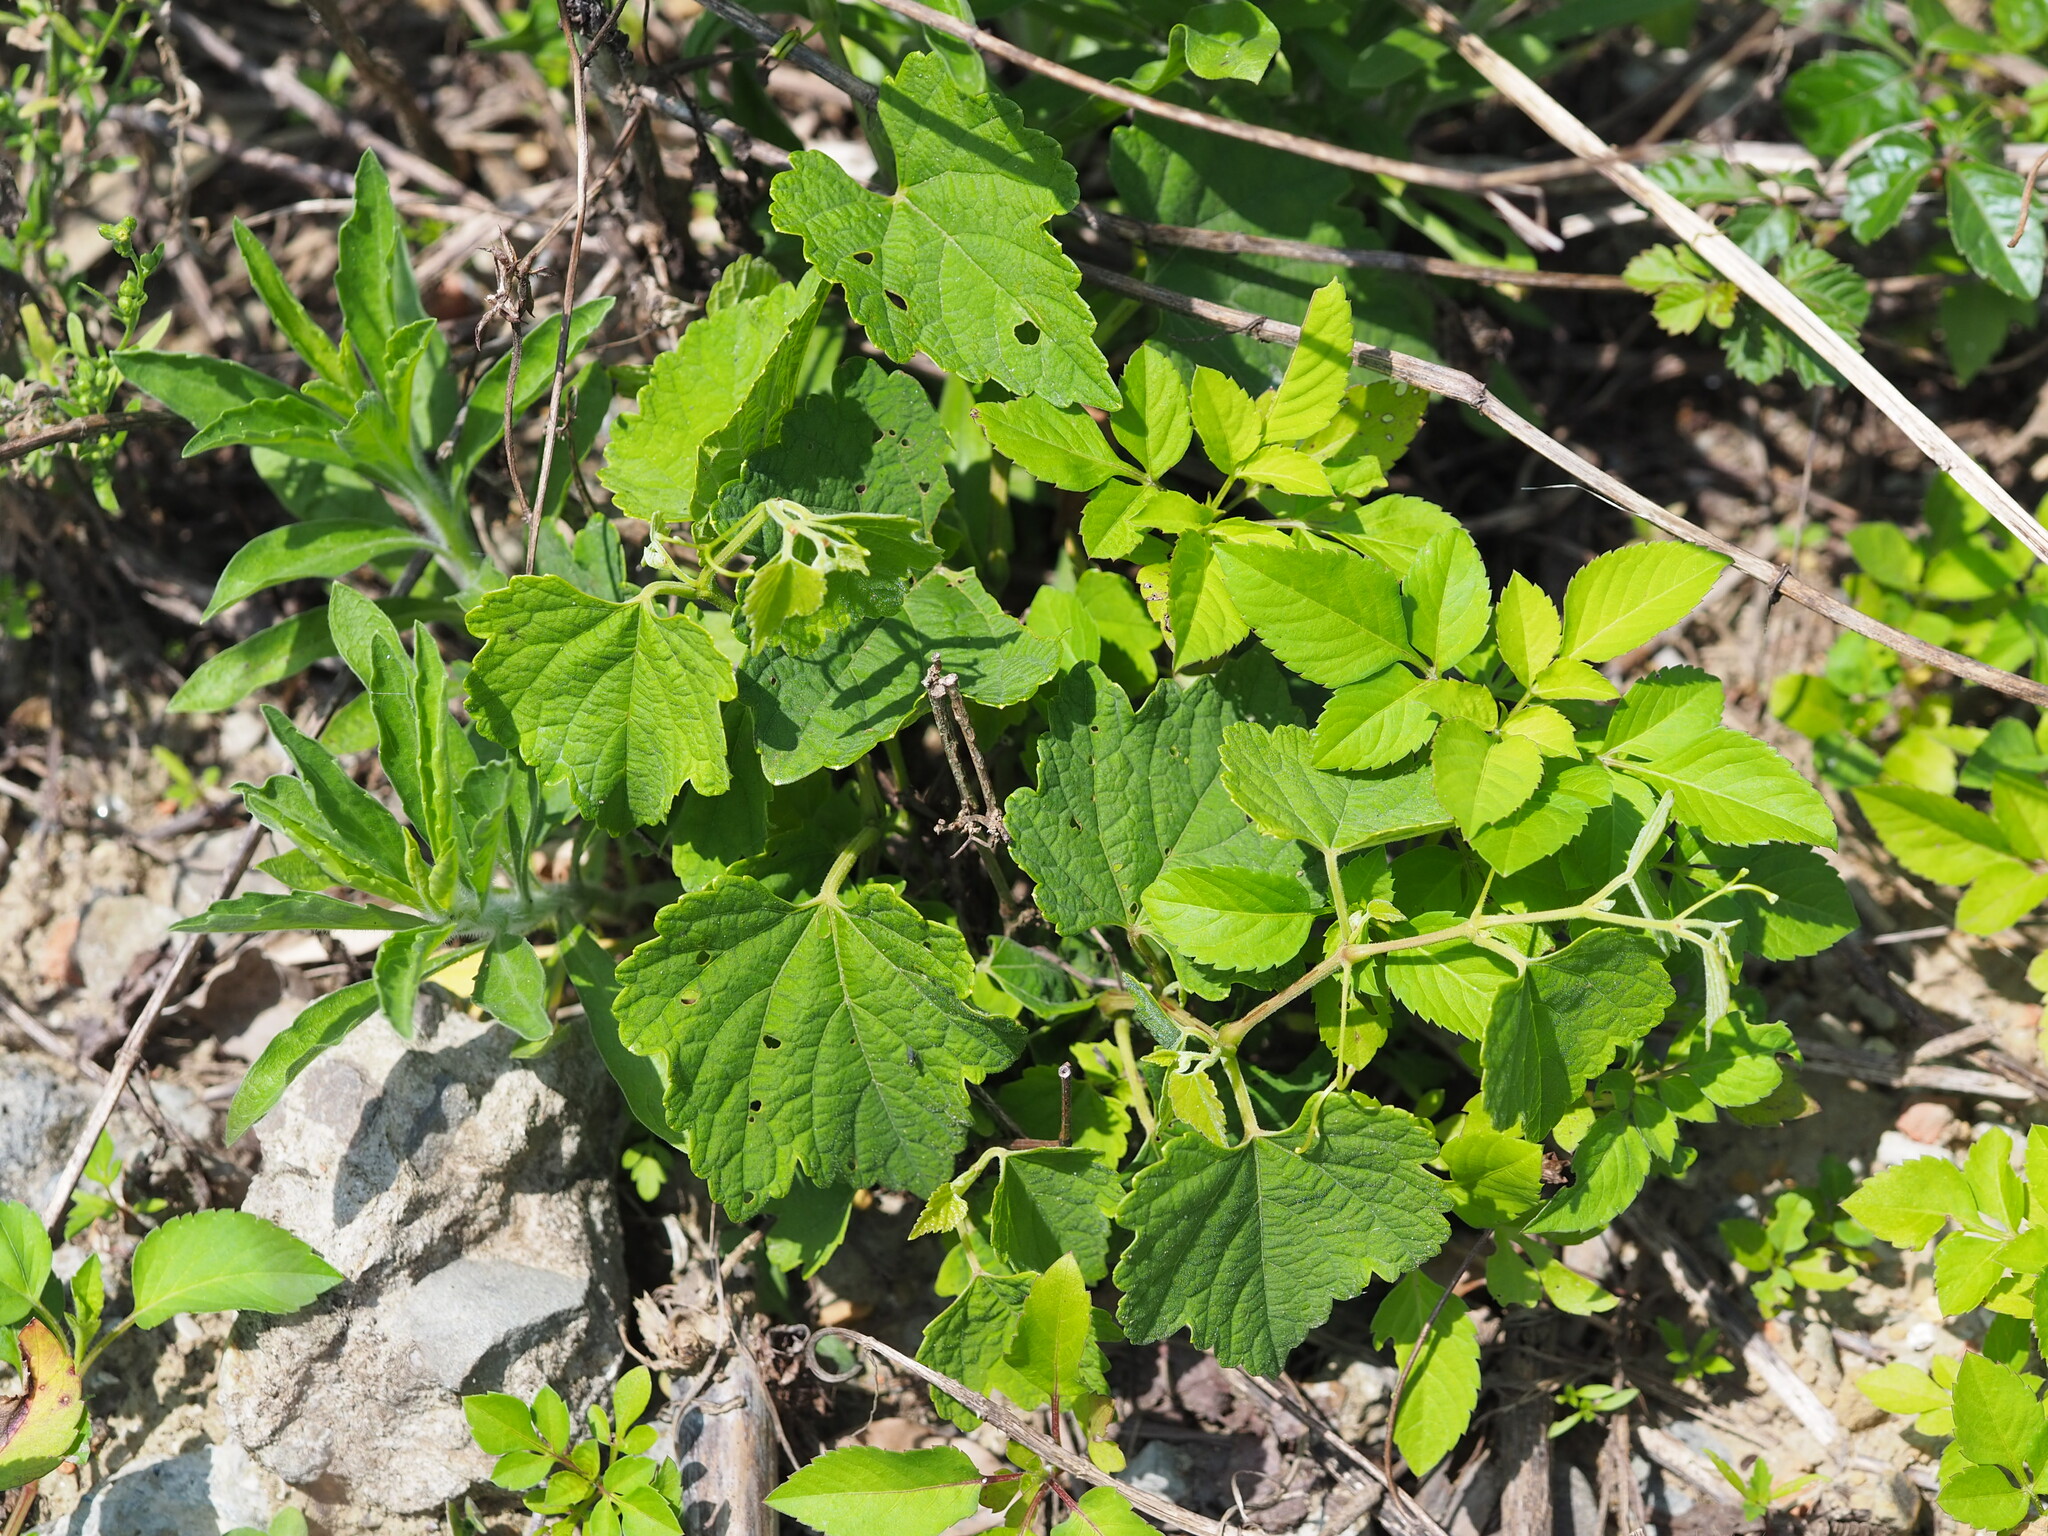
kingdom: Plantae
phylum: Tracheophyta
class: Magnoliopsida
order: Vitales
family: Vitaceae
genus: Ampelopsis
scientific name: Ampelopsis glandulosa
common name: Amur peppervine
